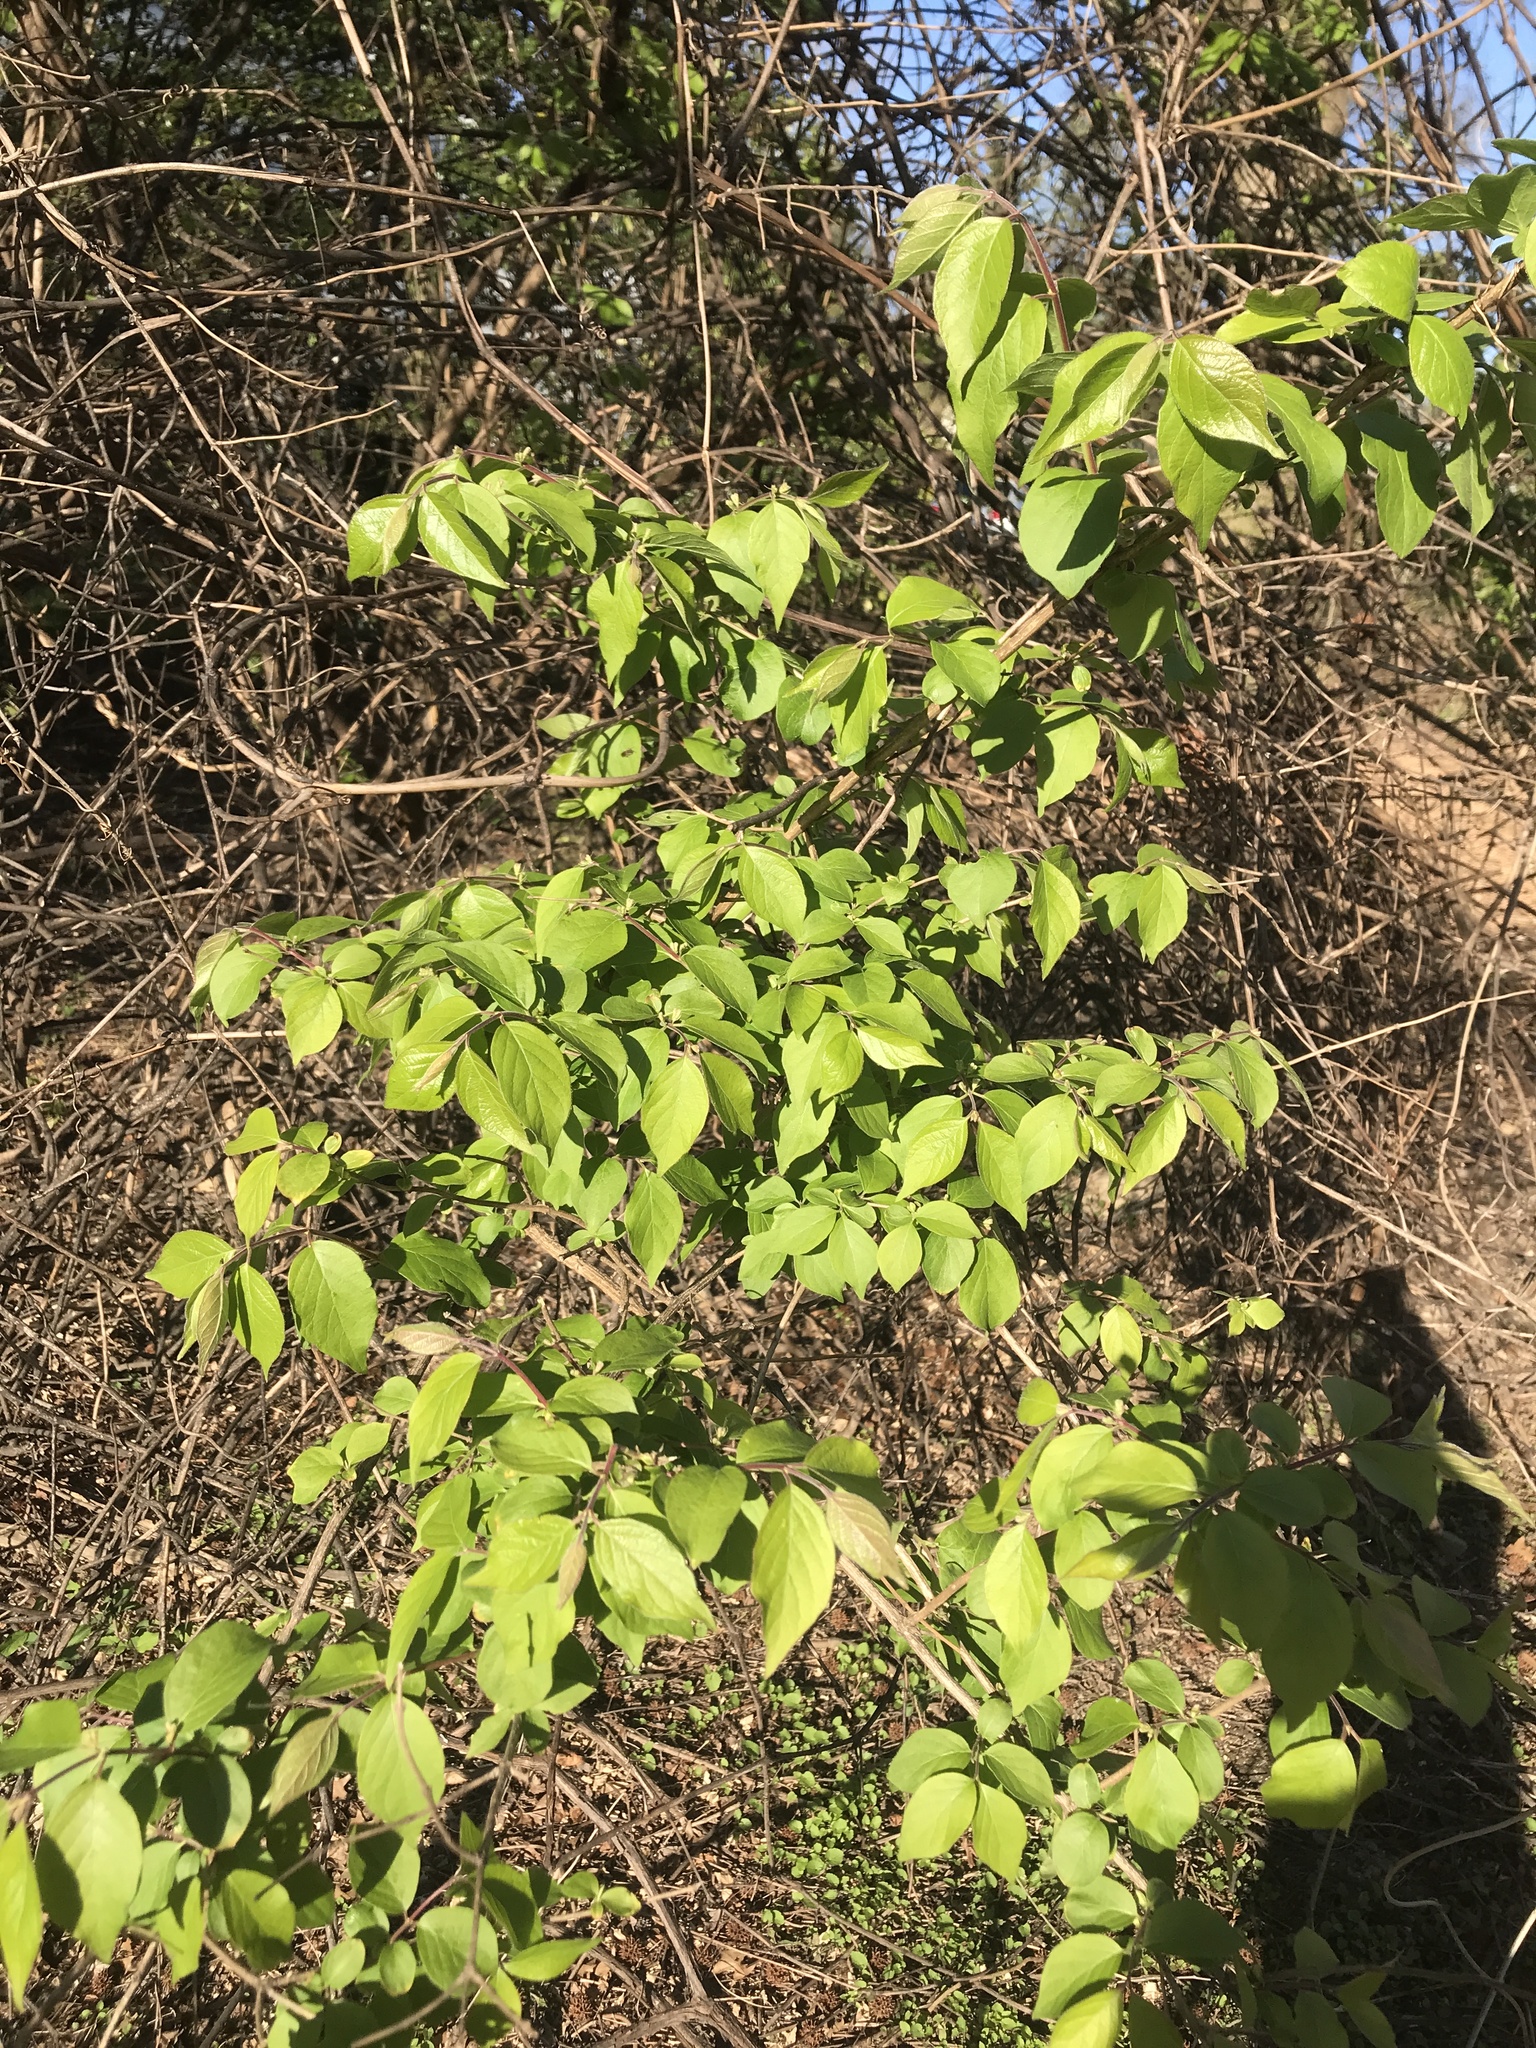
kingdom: Plantae
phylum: Tracheophyta
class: Magnoliopsida
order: Dipsacales
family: Caprifoliaceae
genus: Lonicera
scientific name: Lonicera maackii
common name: Amur honeysuckle
